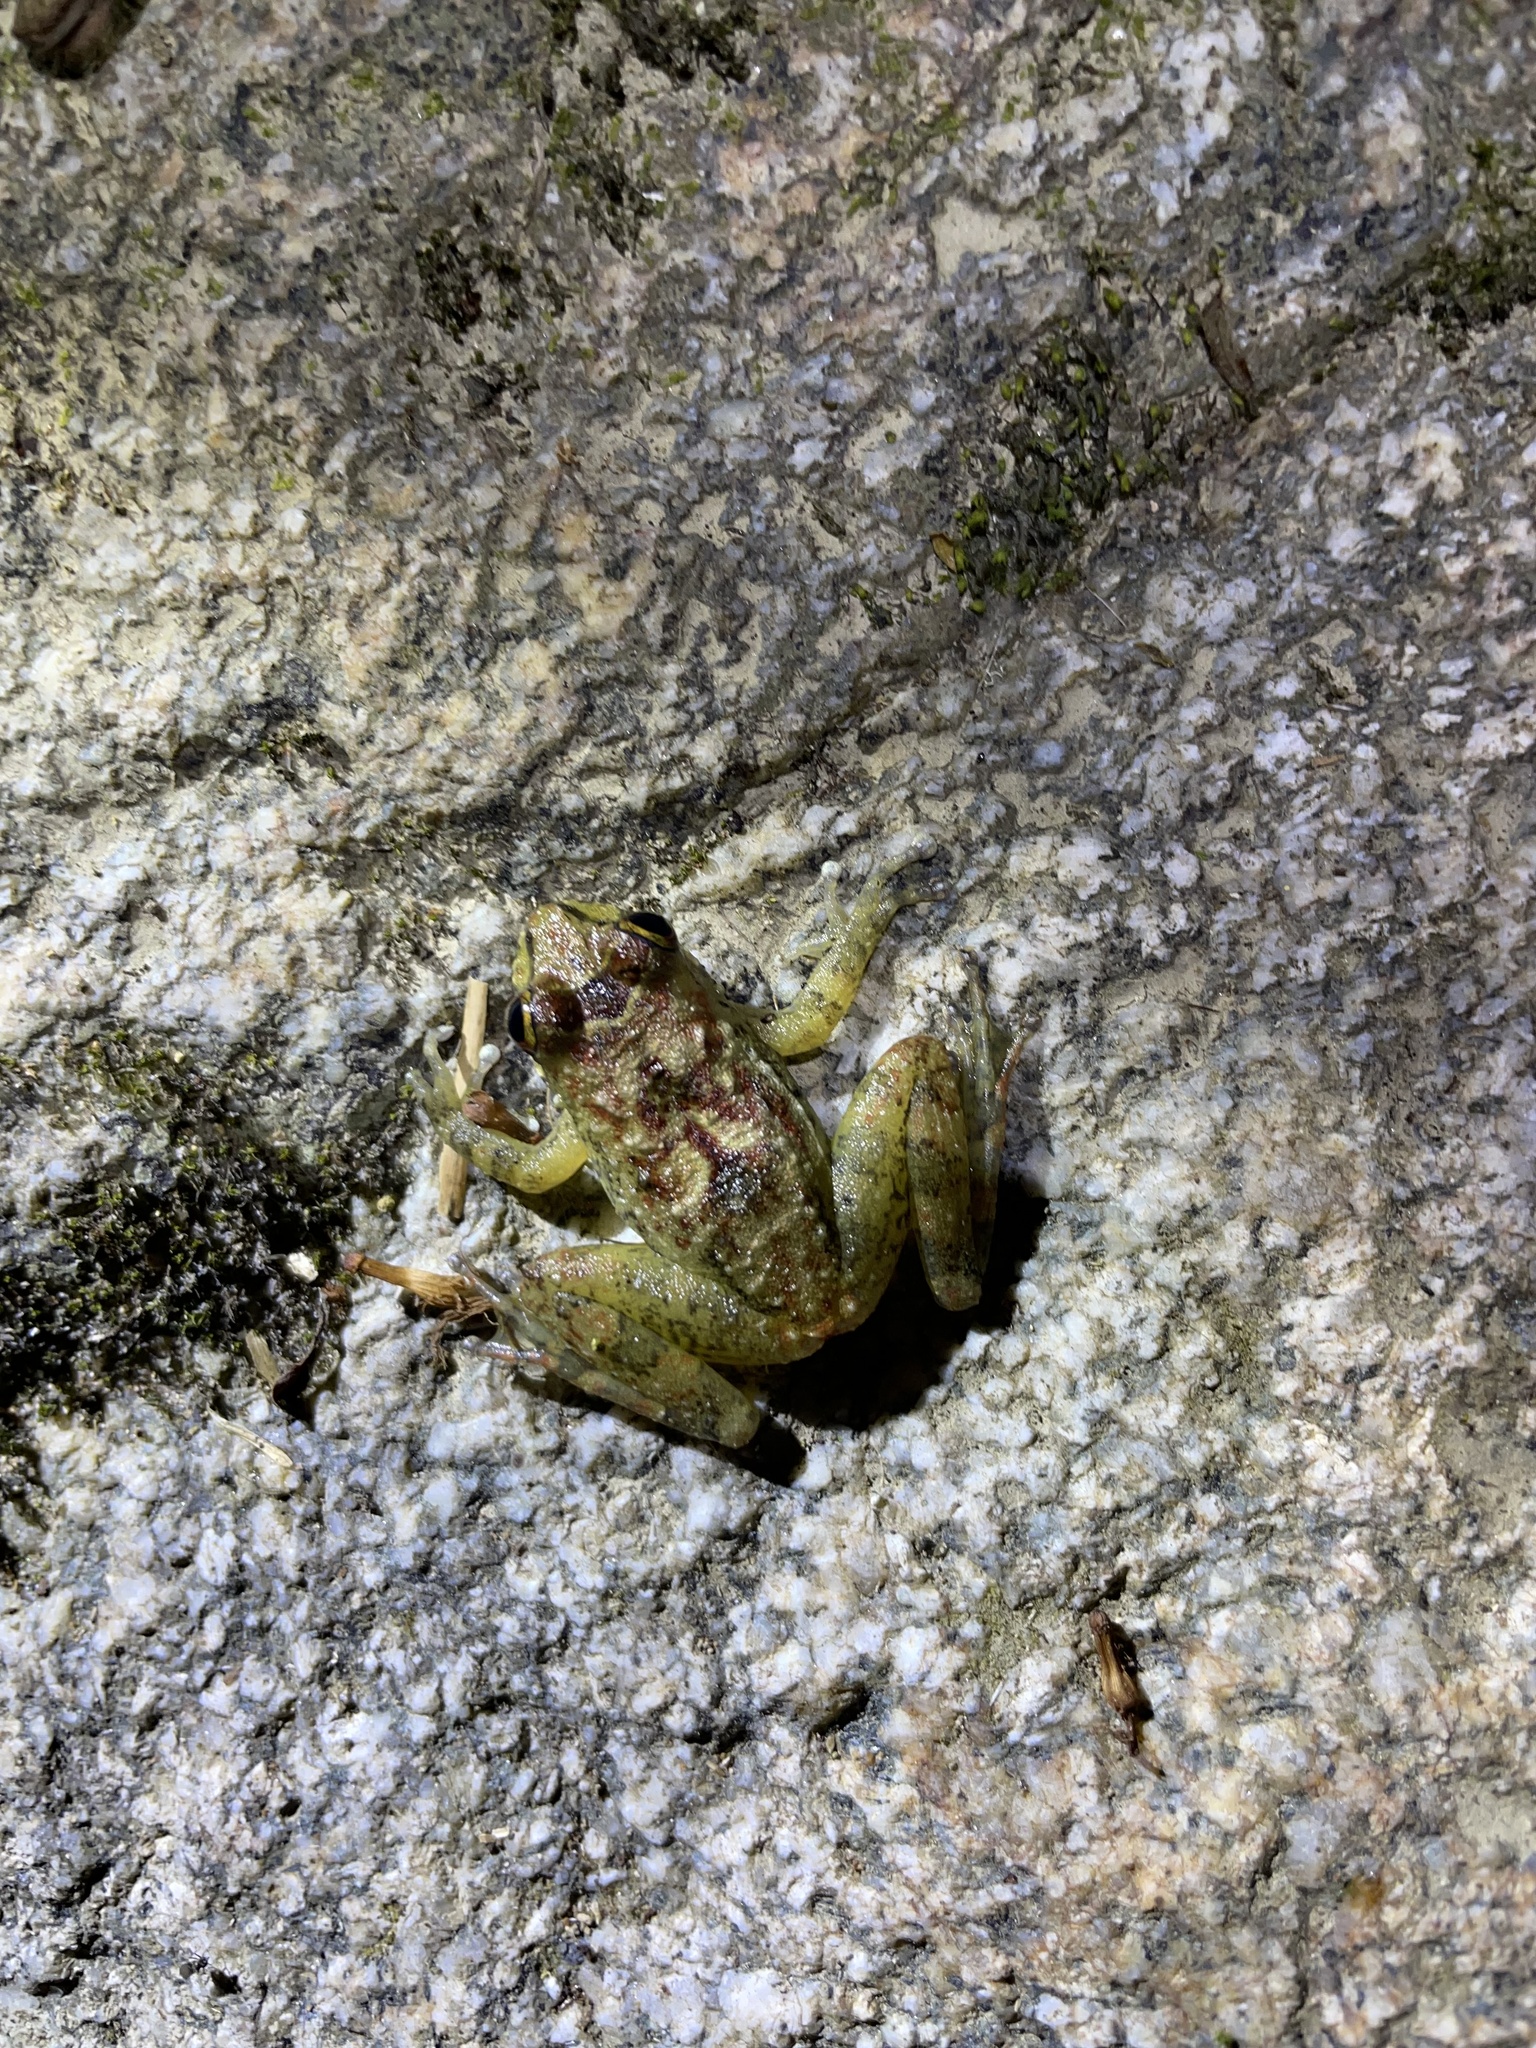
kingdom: Animalia
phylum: Chordata
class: Amphibia
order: Anura
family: Hemiphractidae
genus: Cryptobatrachus
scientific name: Cryptobatrachus boulengeri
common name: Boulenger's backpack frog
